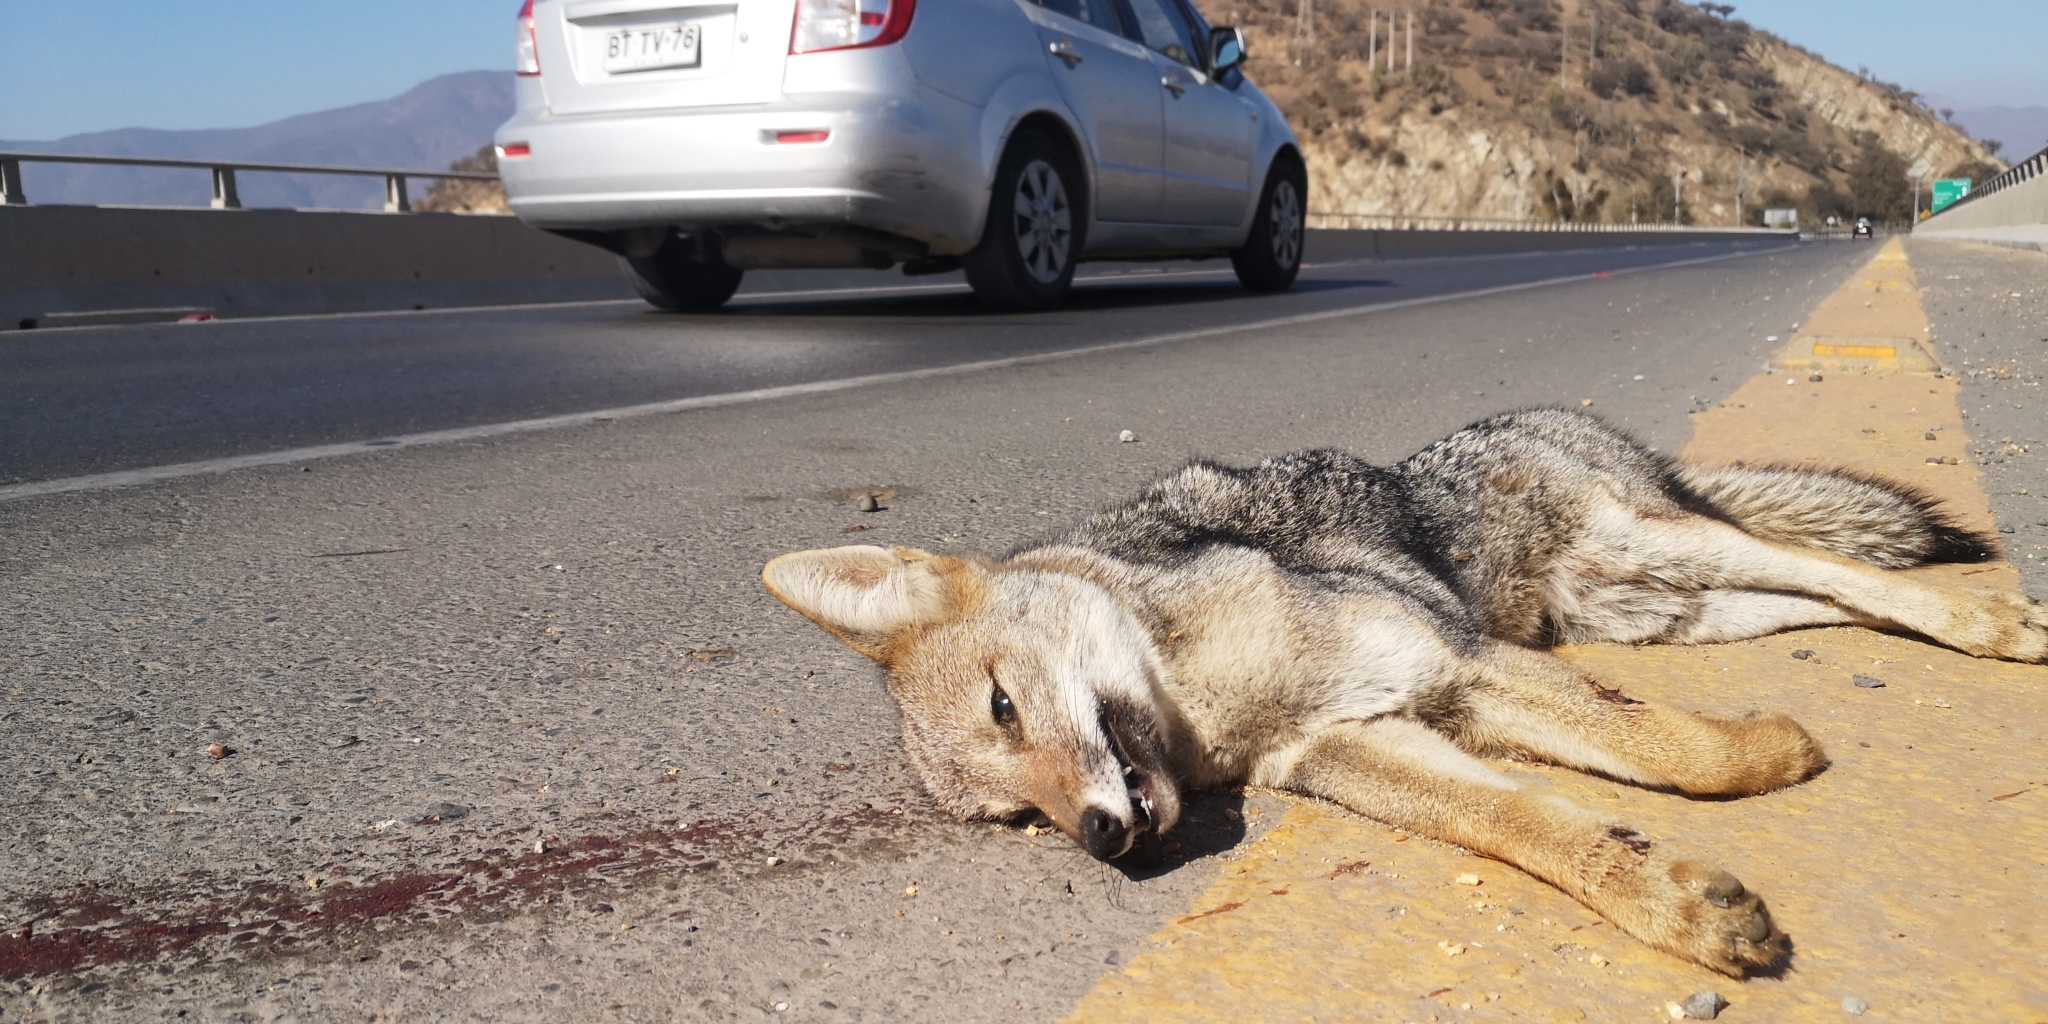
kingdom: Animalia
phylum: Chordata
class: Mammalia
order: Carnivora
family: Canidae
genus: Lycalopex
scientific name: Lycalopex culpaeus
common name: Culpeo
